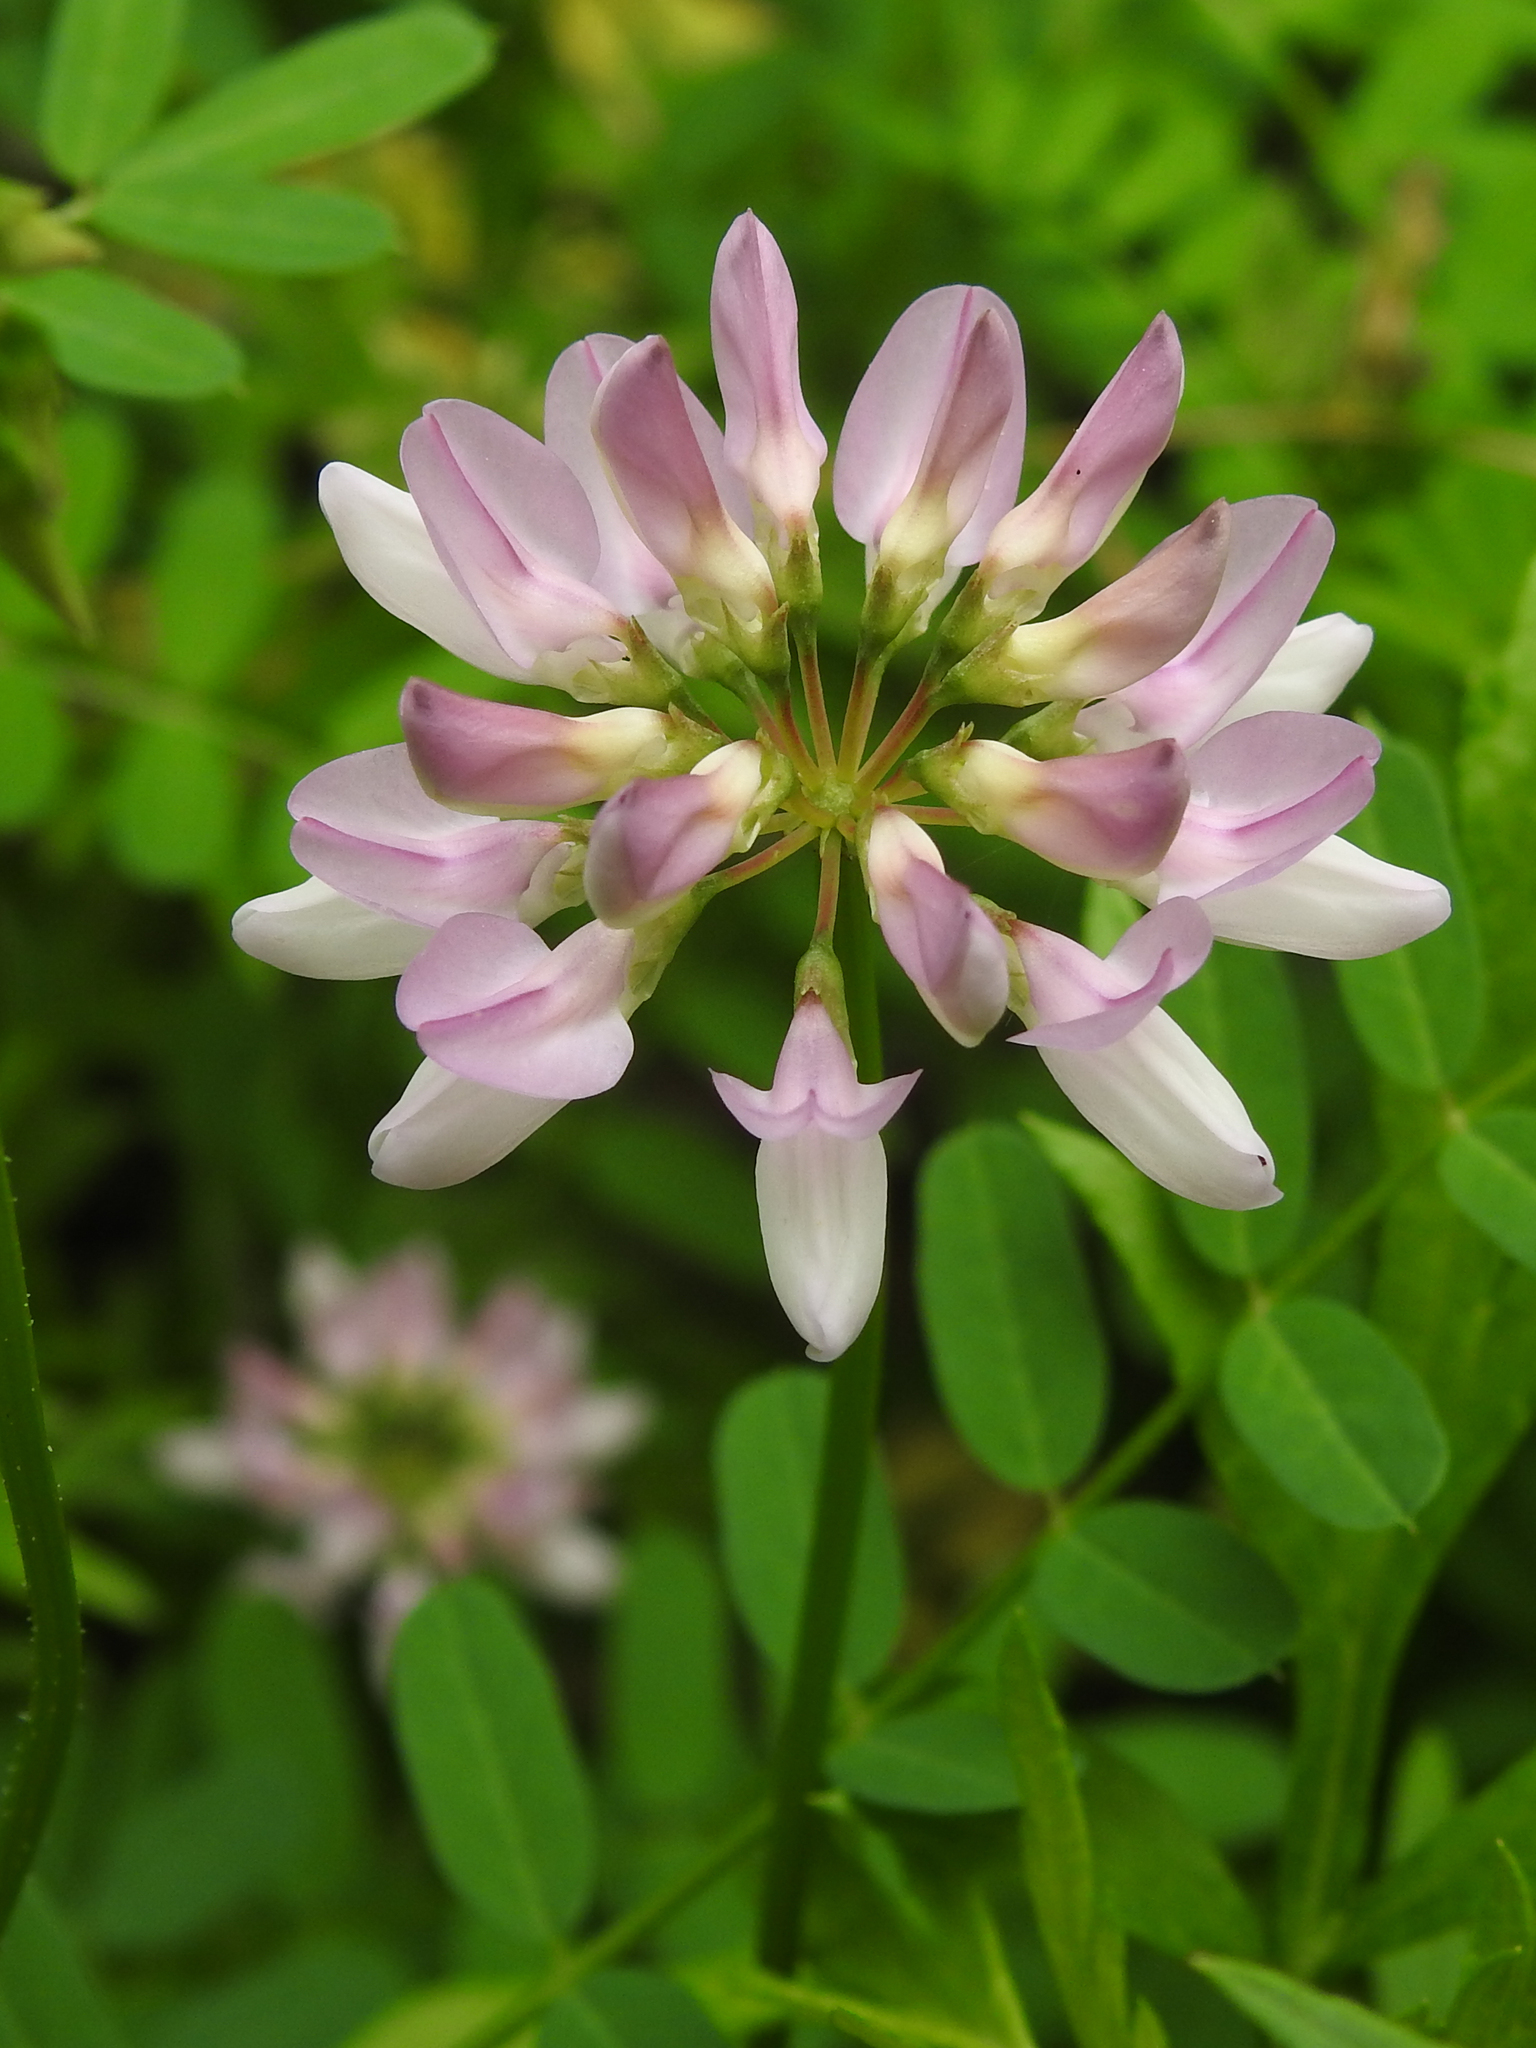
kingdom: Plantae
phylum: Tracheophyta
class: Magnoliopsida
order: Fabales
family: Fabaceae
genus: Coronilla
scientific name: Coronilla varia
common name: Crownvetch
